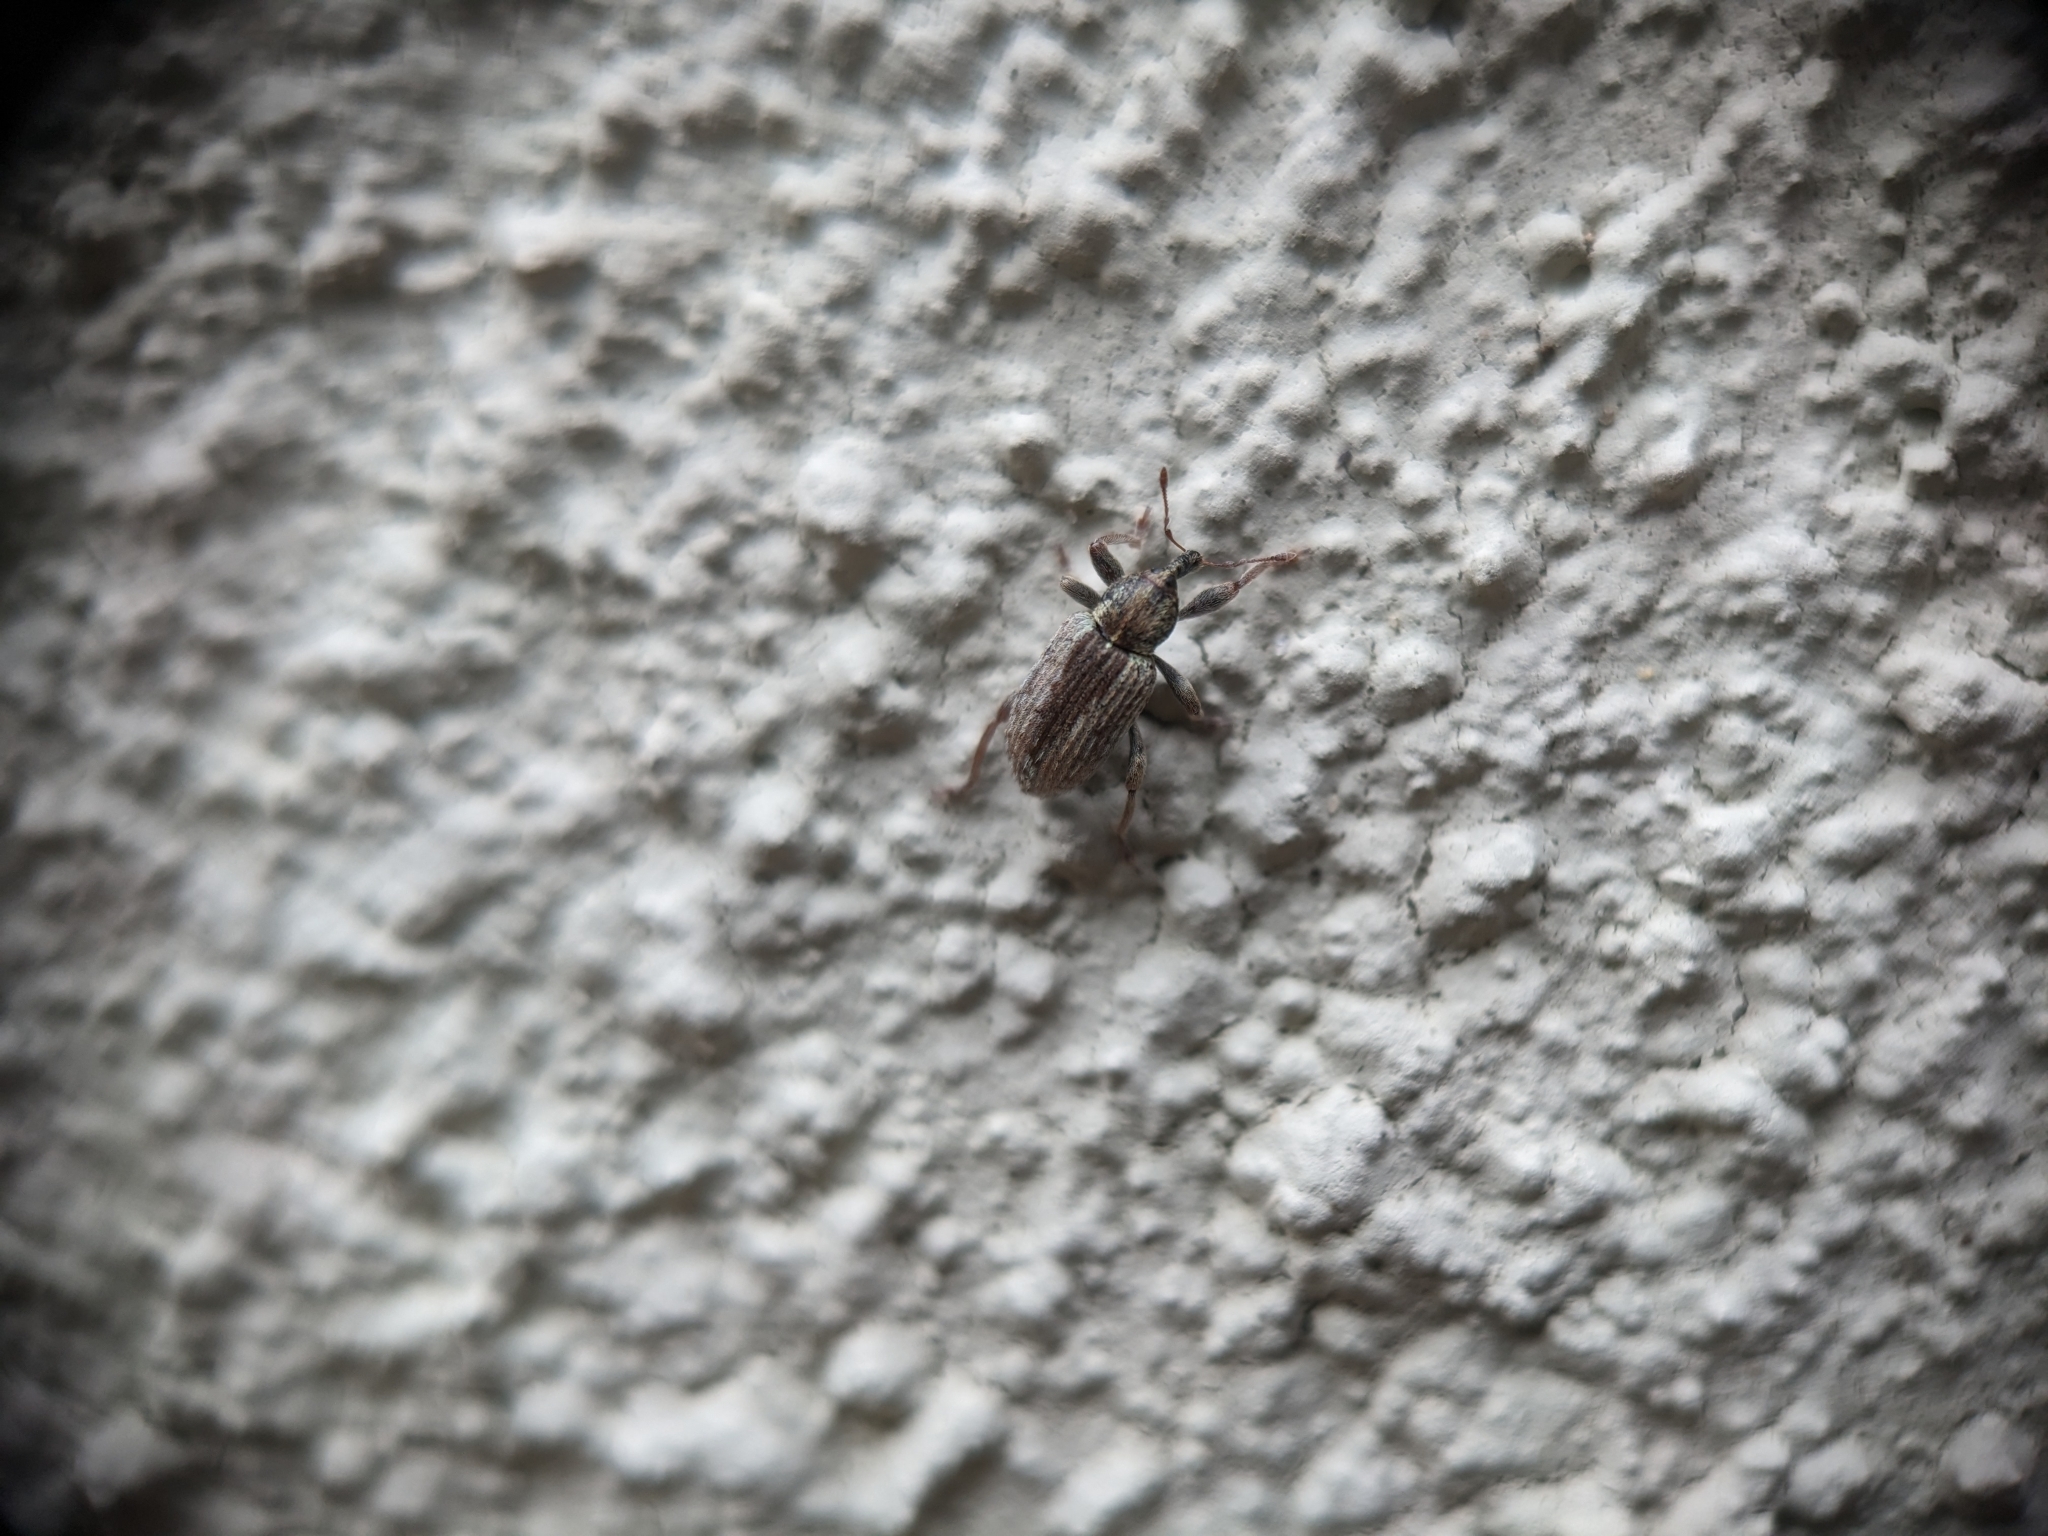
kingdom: Animalia
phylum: Arthropoda
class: Insecta
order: Coleoptera
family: Curculionidae
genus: Hypera
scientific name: Hypera postica
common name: Weevil
